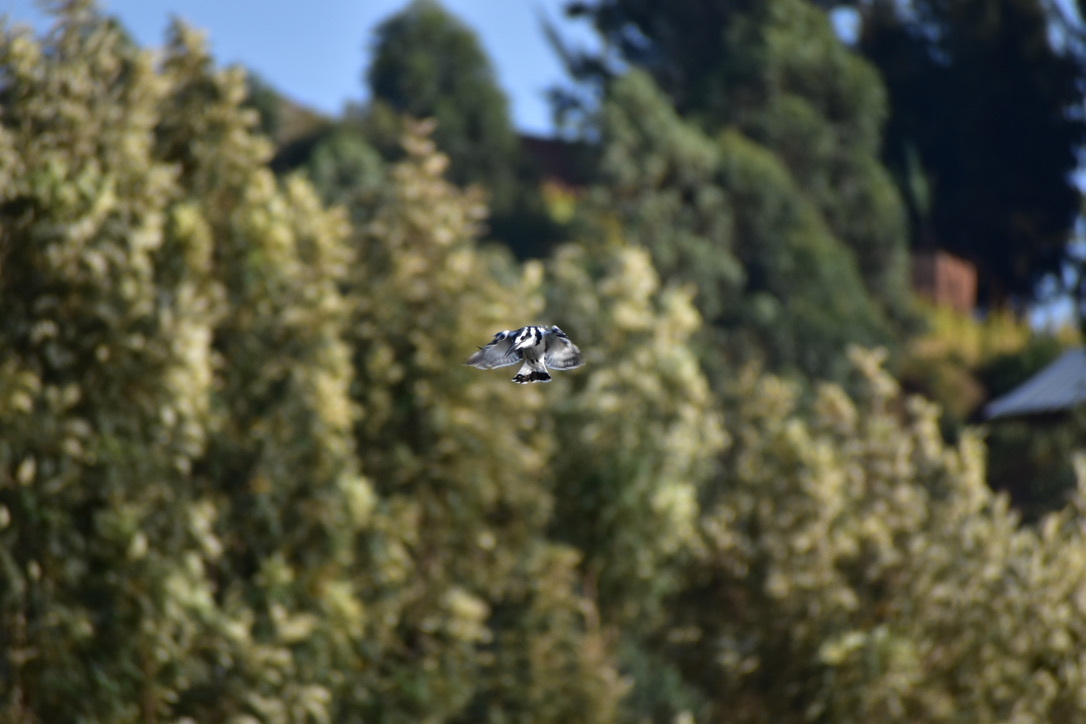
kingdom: Animalia
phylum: Chordata
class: Aves
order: Coraciiformes
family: Alcedinidae
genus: Ceryle
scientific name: Ceryle rudis
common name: Pied kingfisher
